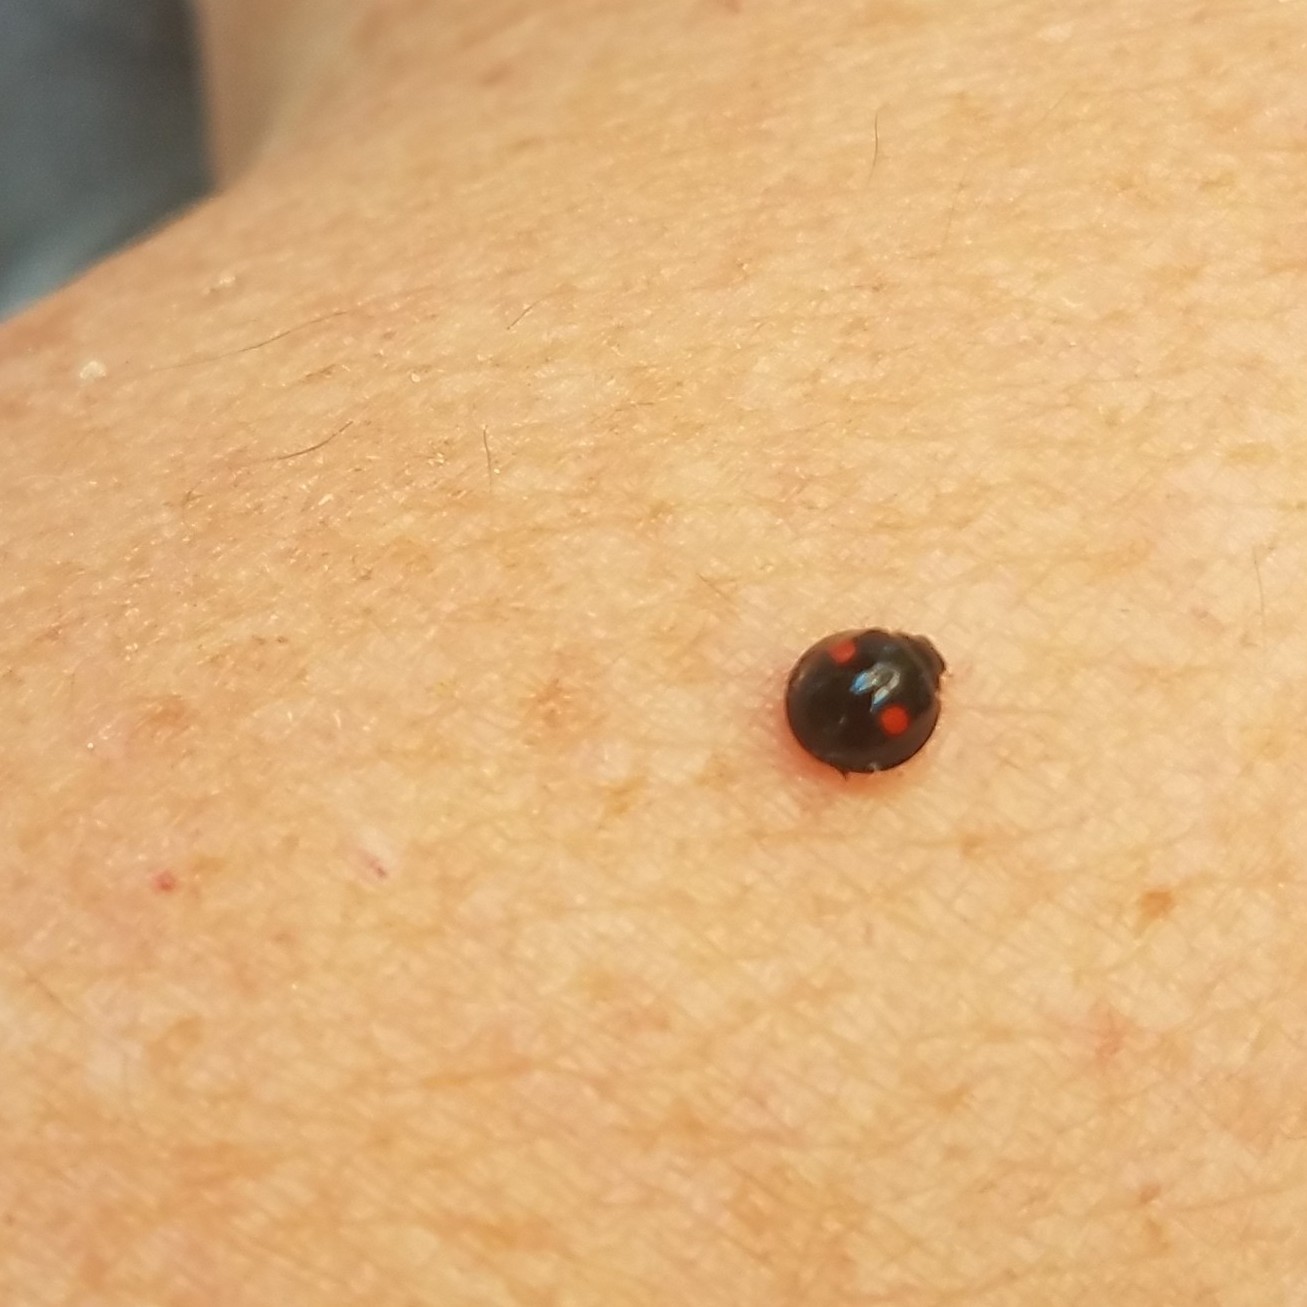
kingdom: Animalia
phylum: Arthropoda
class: Insecta
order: Coleoptera
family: Coccinellidae
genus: Chilocorus
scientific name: Chilocorus stigma
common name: Twicestabbed lady beetle
